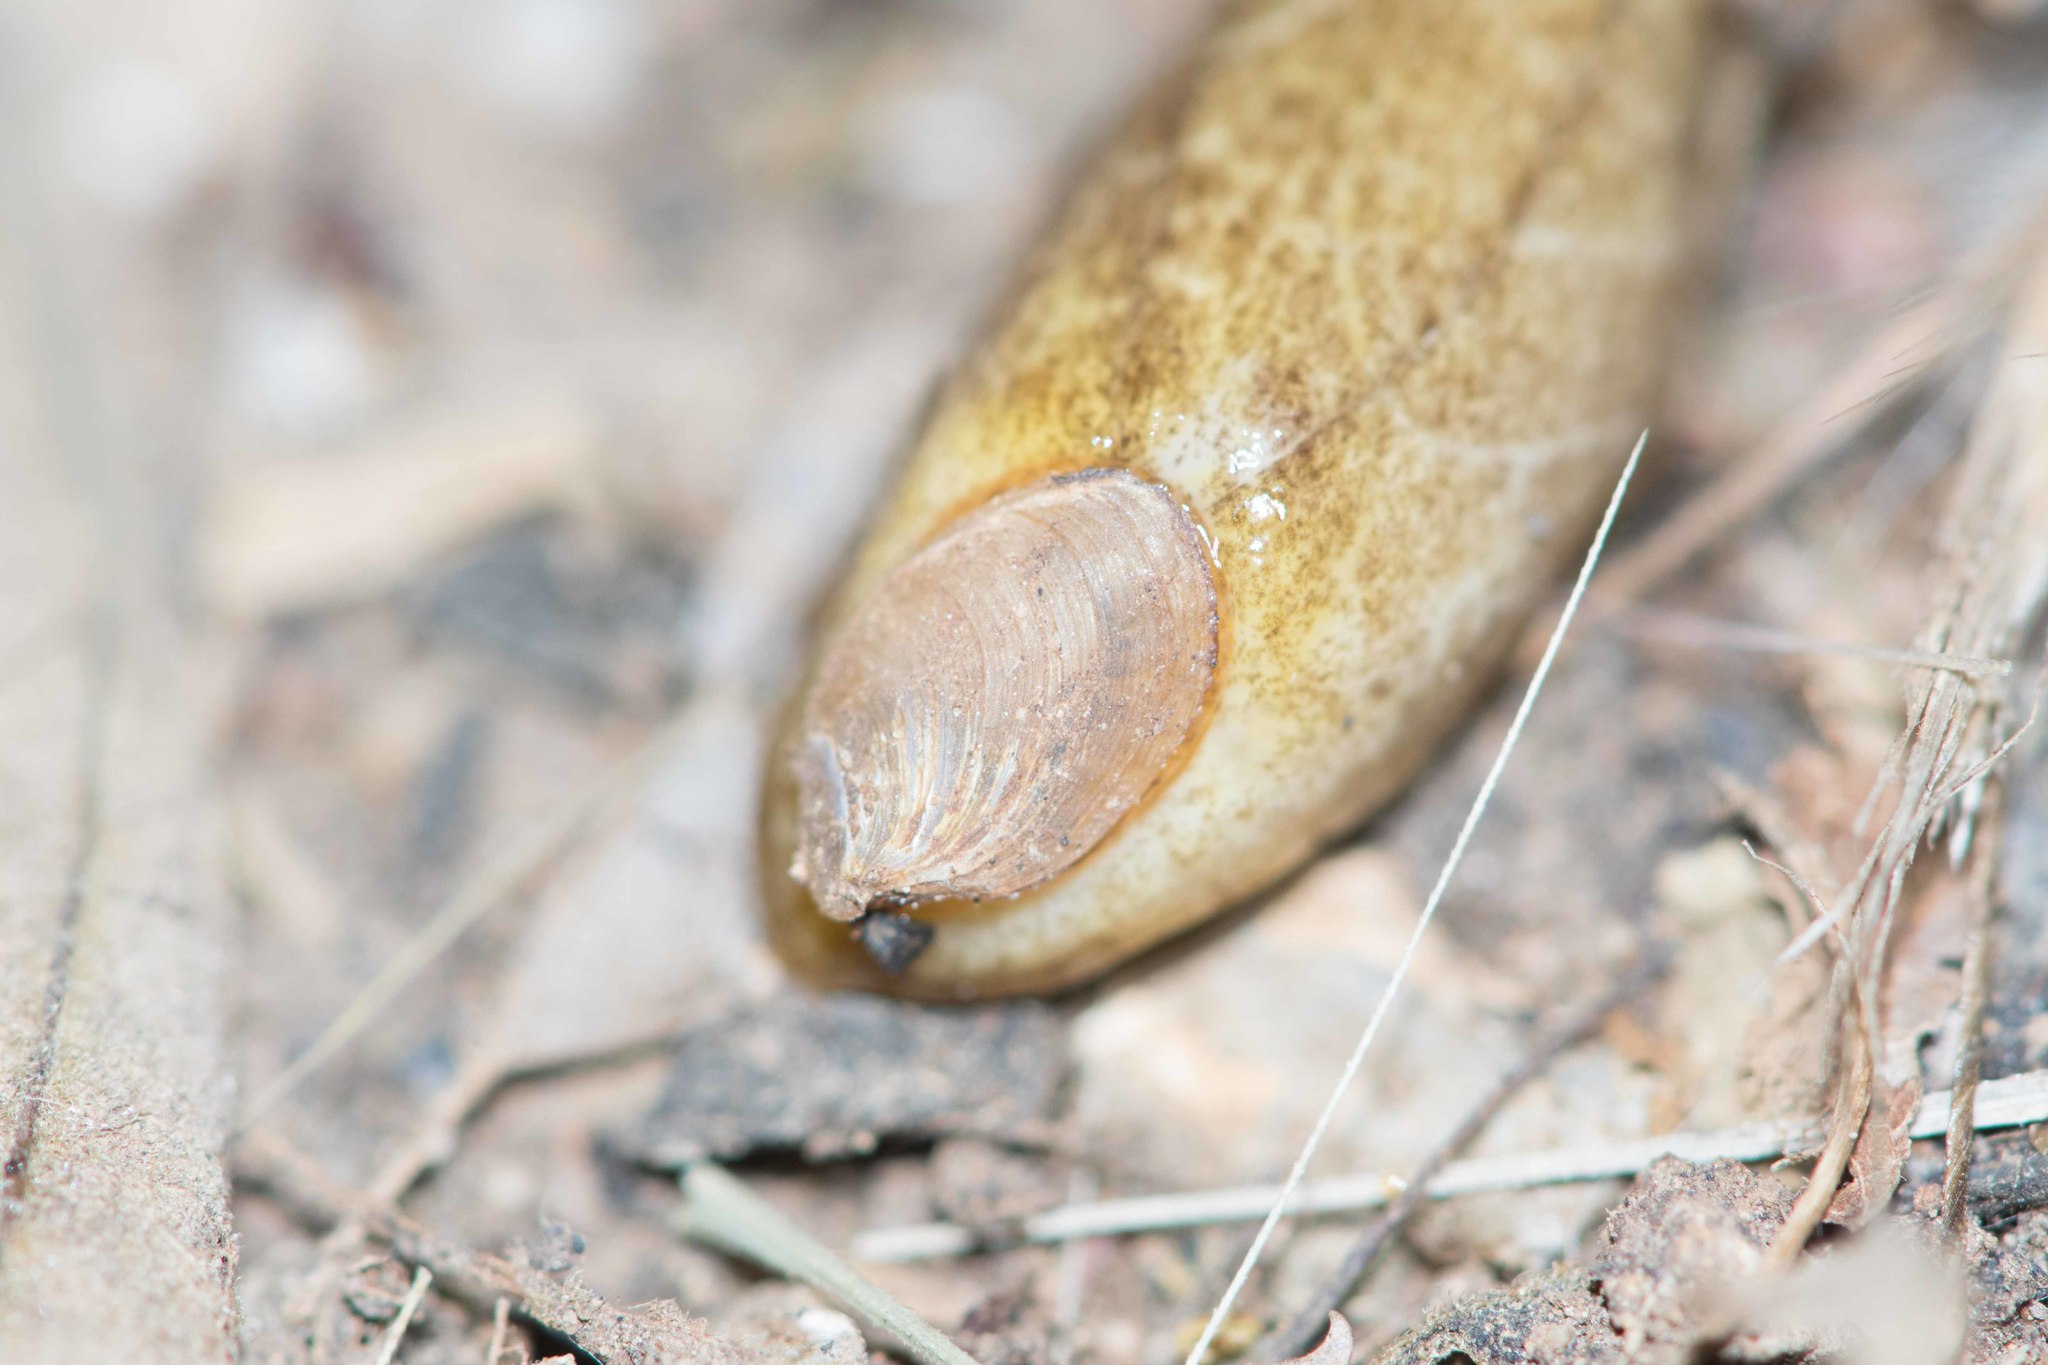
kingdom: Animalia
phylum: Mollusca
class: Gastropoda
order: Stylommatophora
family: Testacellidae
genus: Testacella
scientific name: Testacella haliotidea
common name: Shelled slug
